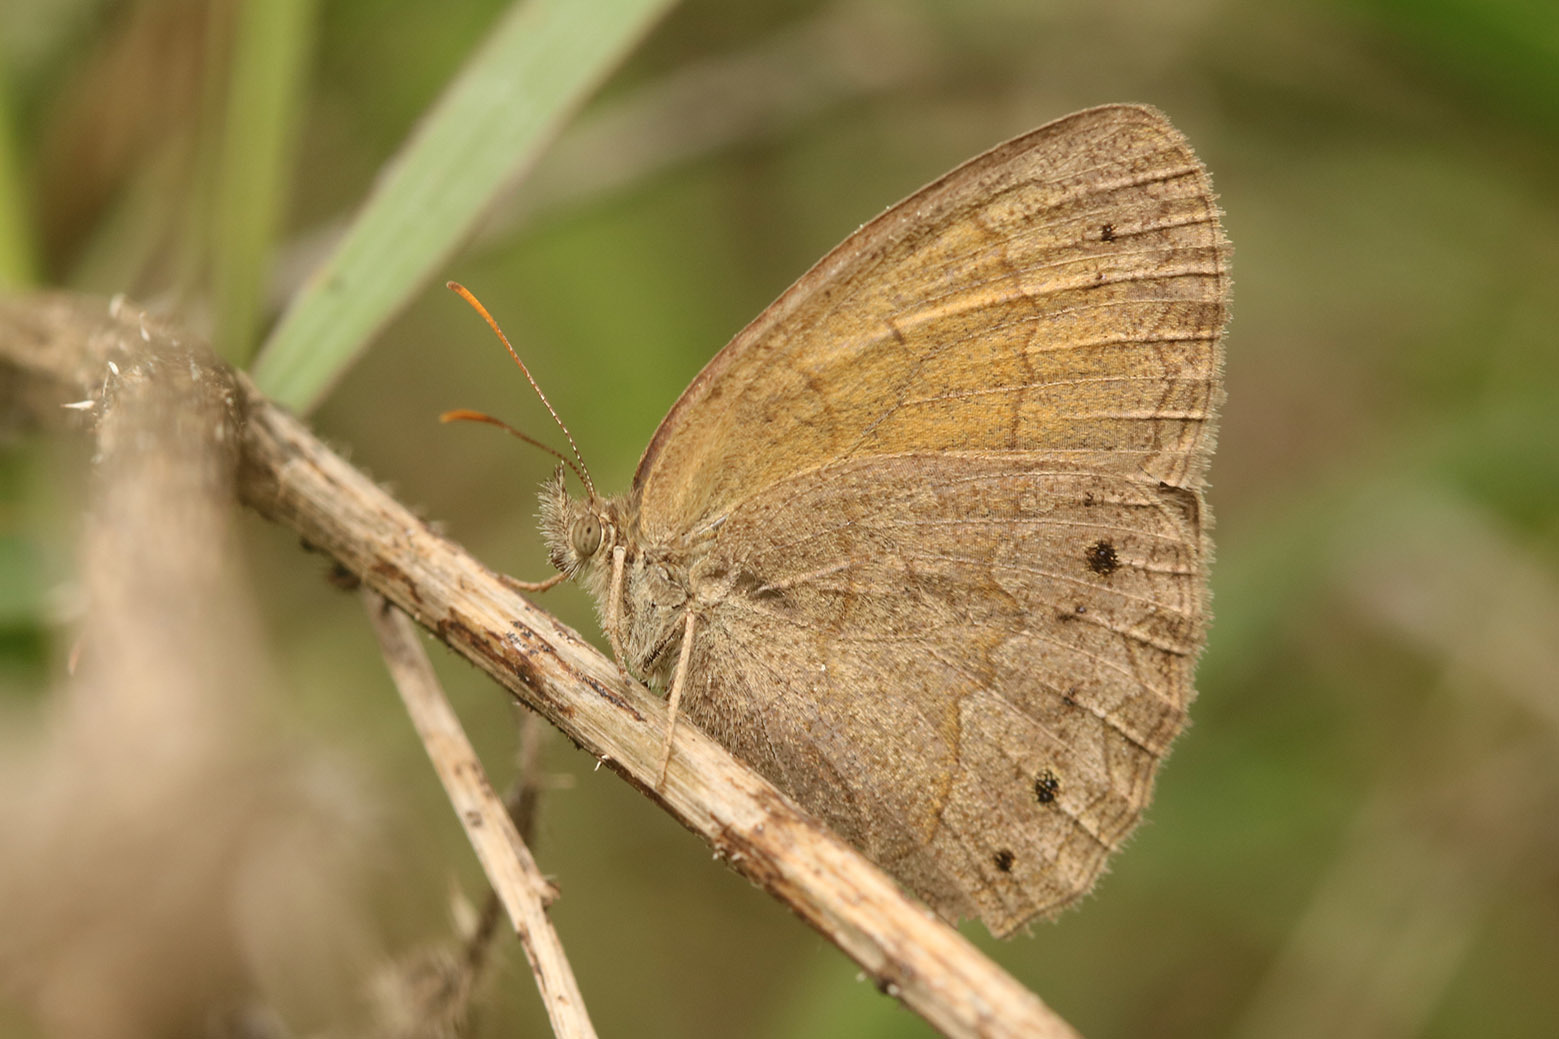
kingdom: Animalia
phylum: Arthropoda
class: Insecta
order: Lepidoptera
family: Nymphalidae
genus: Yphthimoides
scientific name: Yphthimoides celmis
